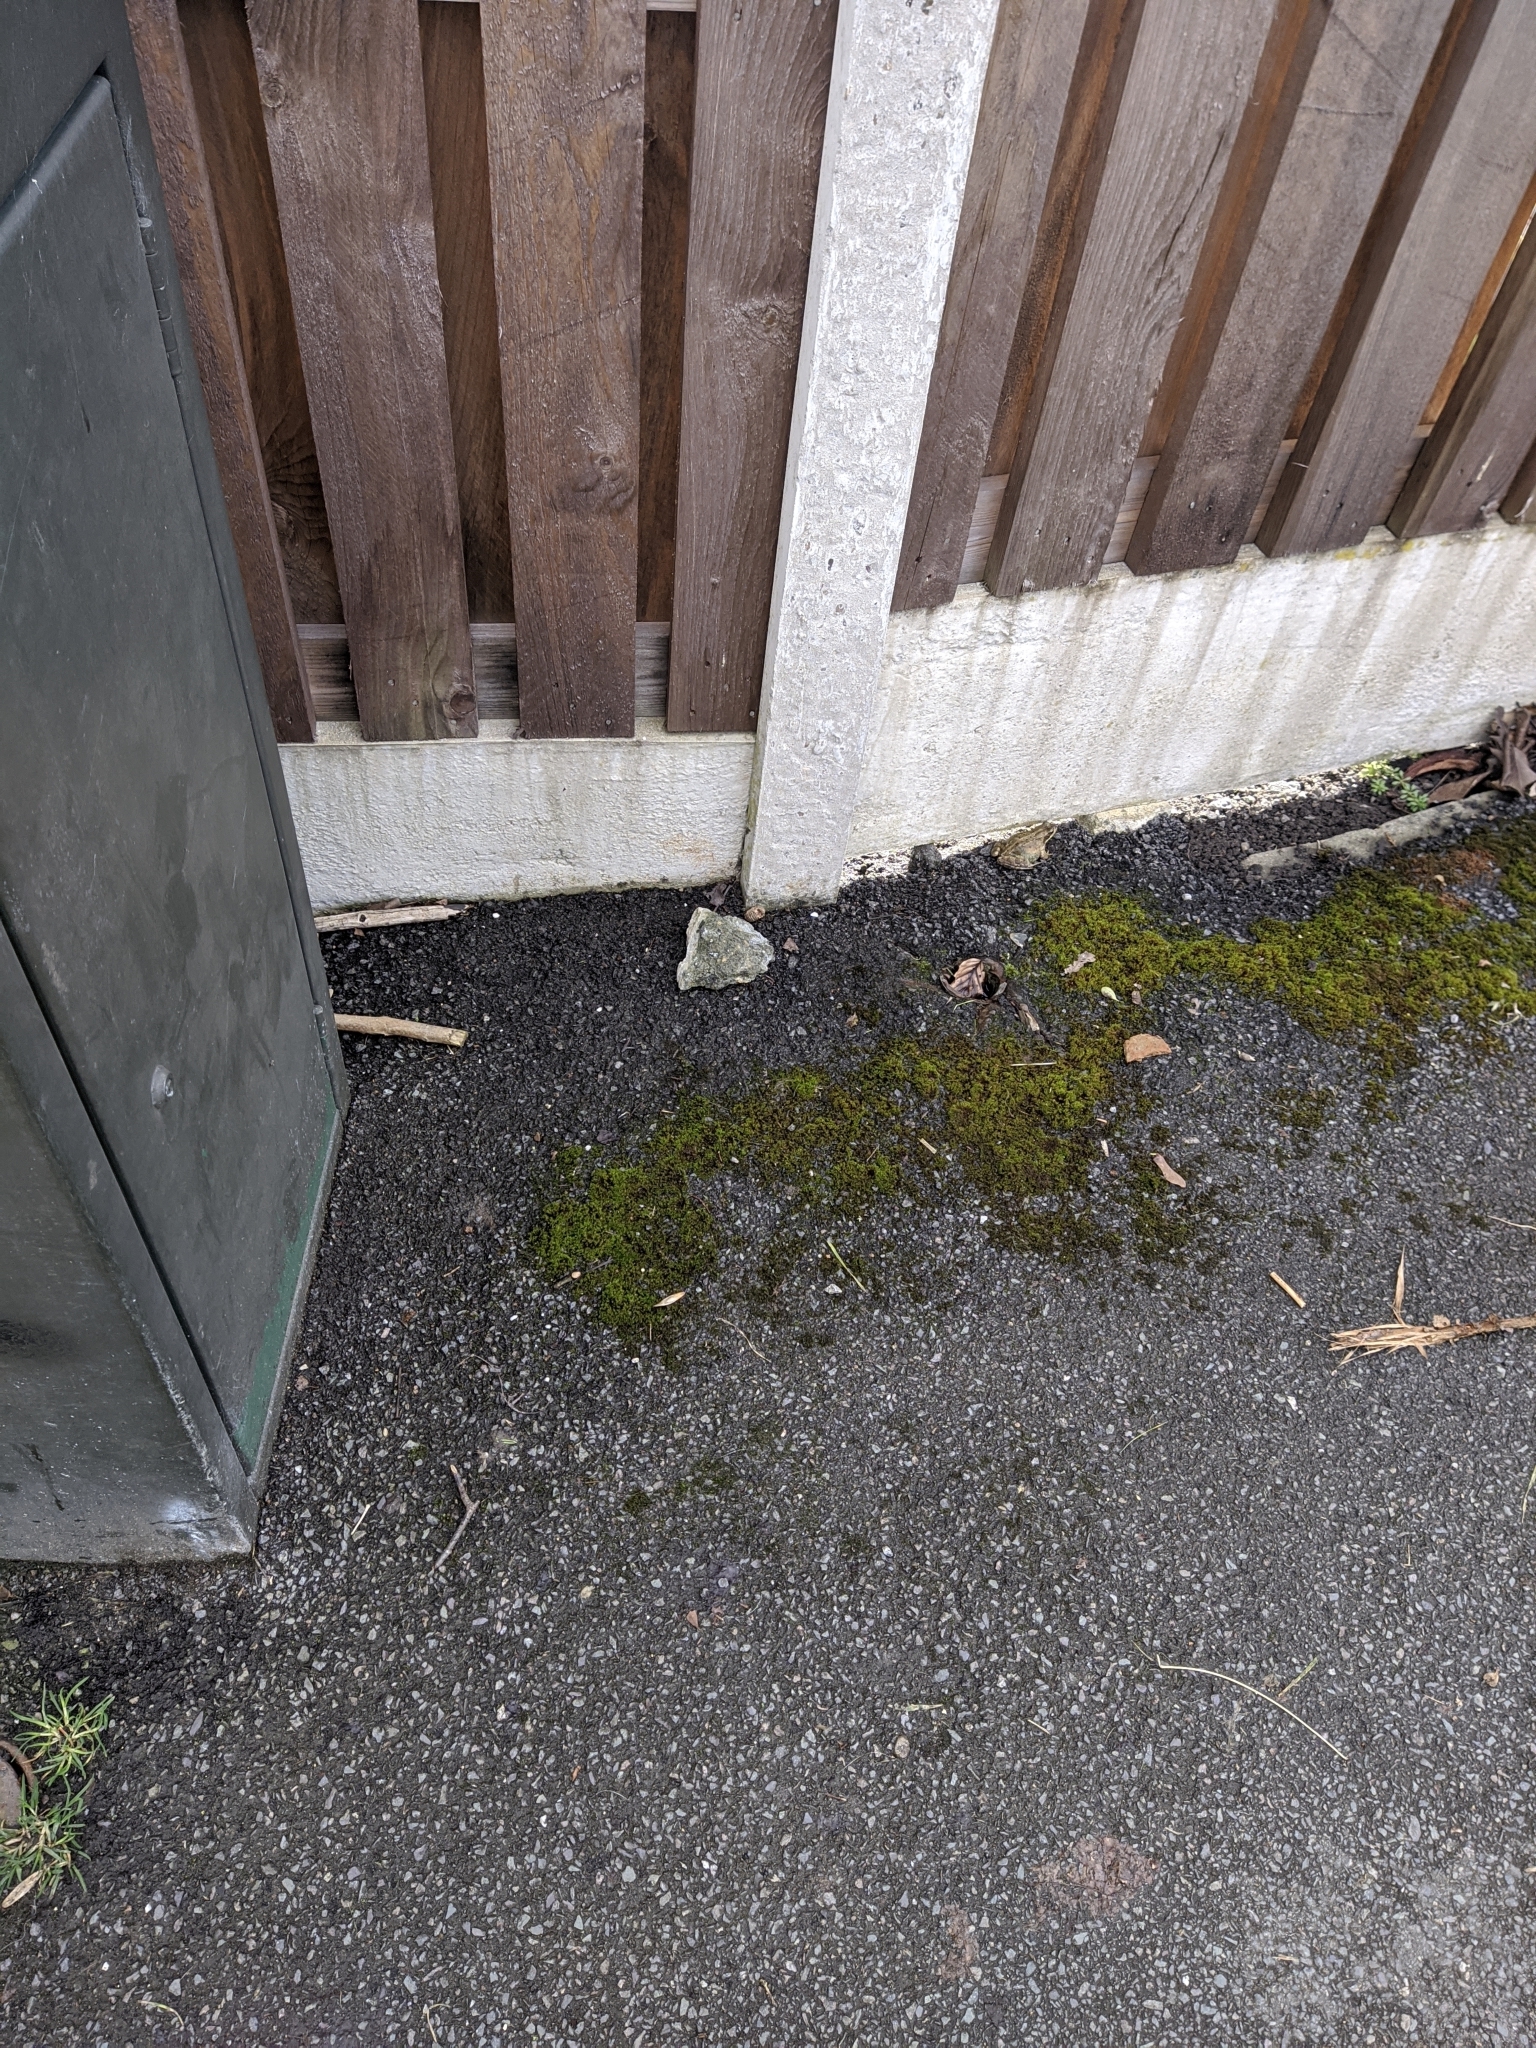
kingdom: Animalia
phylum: Chordata
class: Amphibia
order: Anura
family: Ranidae
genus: Rana
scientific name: Rana temporaria
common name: Common frog
